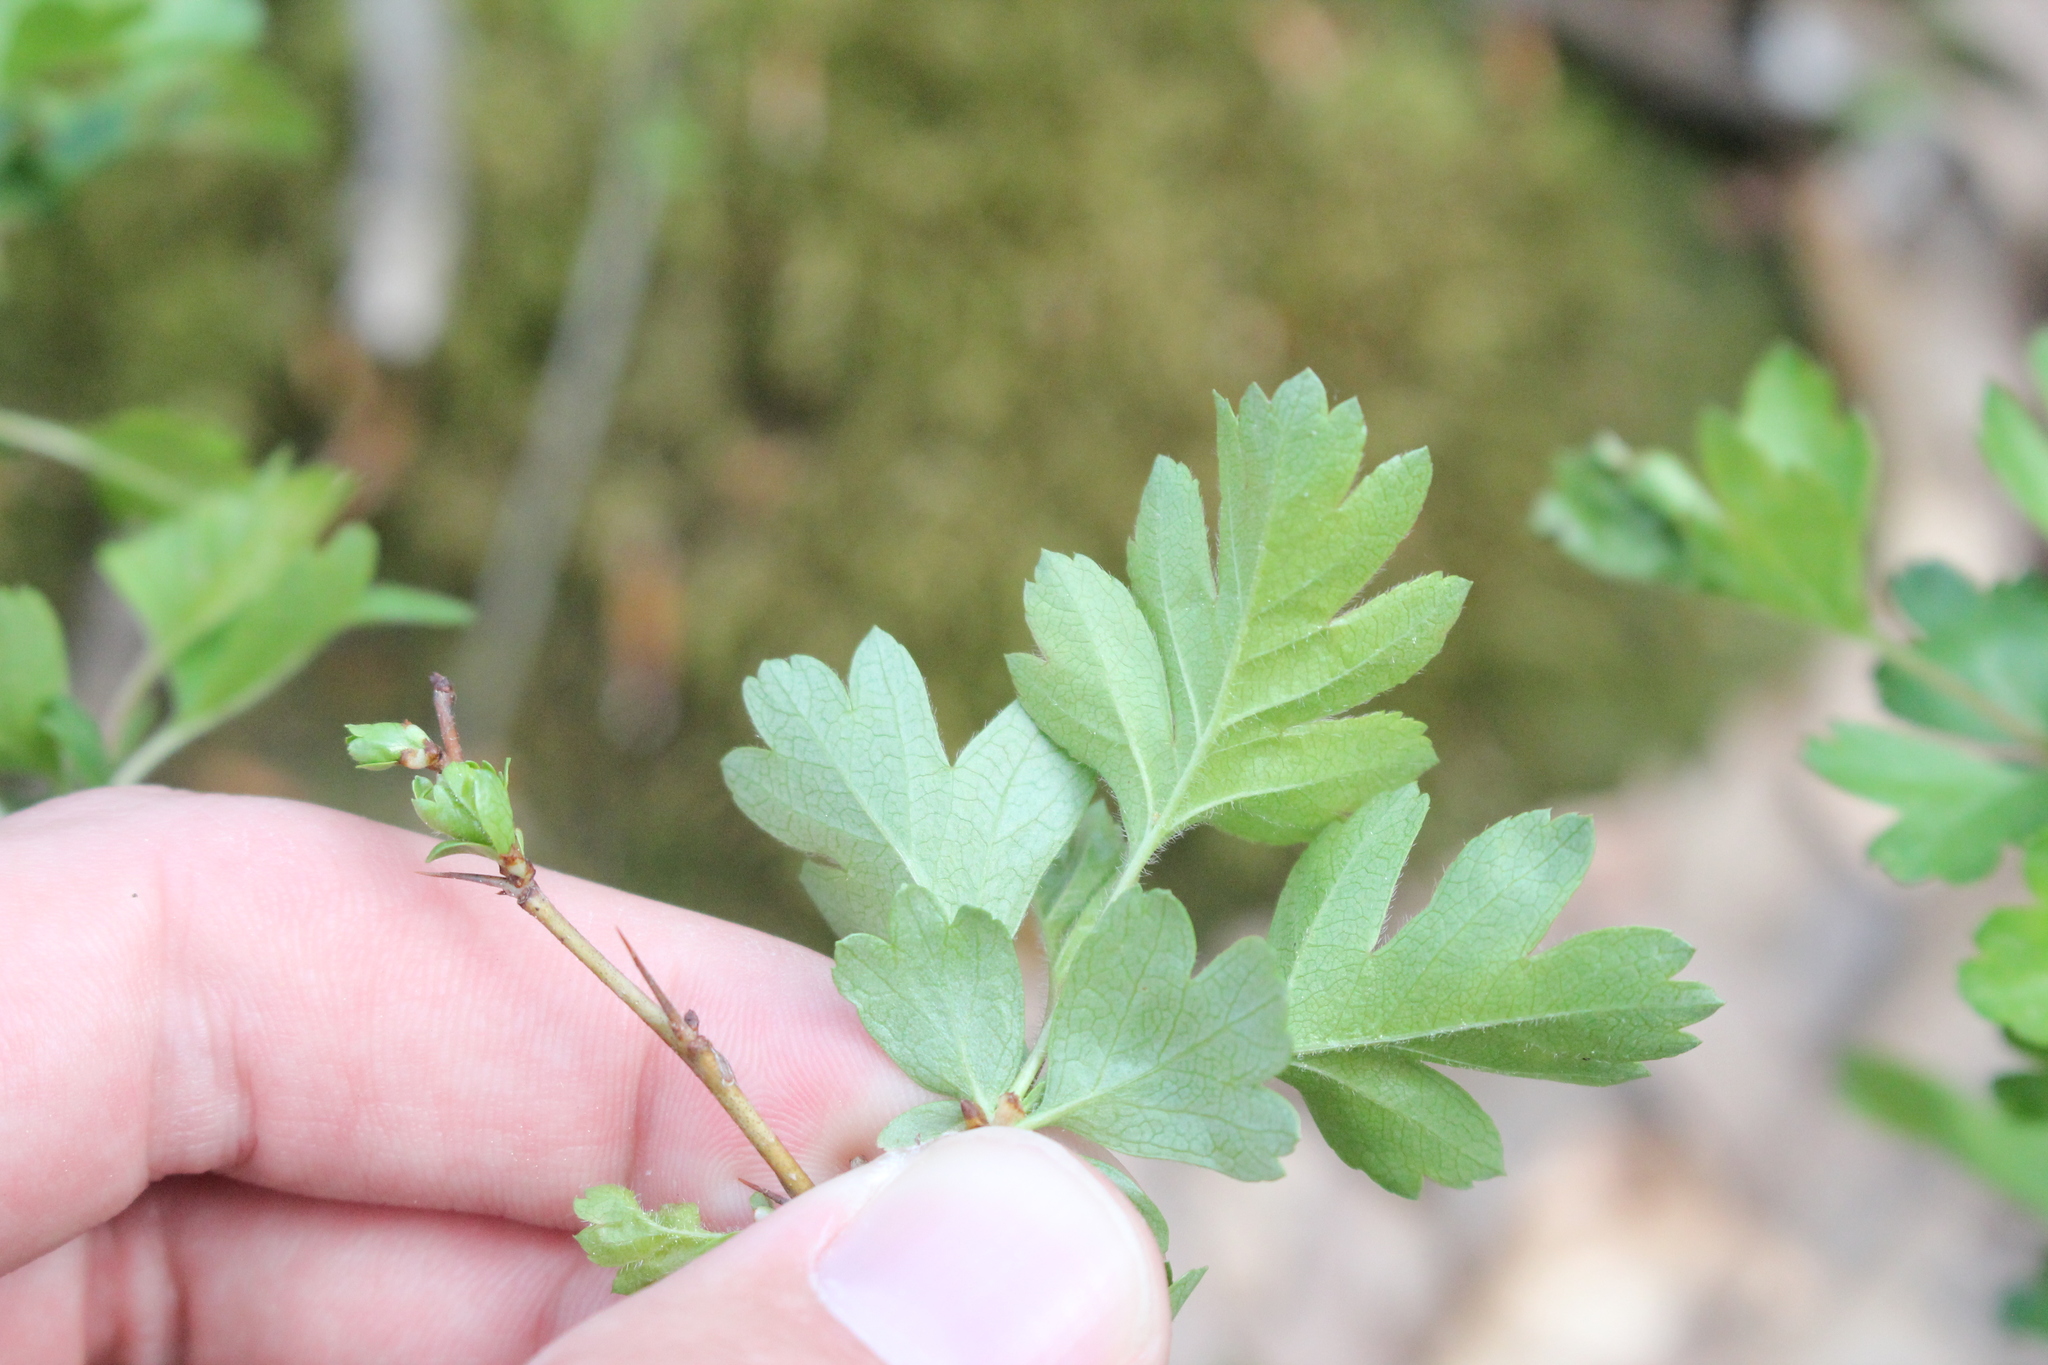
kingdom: Plantae
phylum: Tracheophyta
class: Magnoliopsida
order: Rosales
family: Rosaceae
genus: Crataegus
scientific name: Crataegus monogyna
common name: Hawthorn
